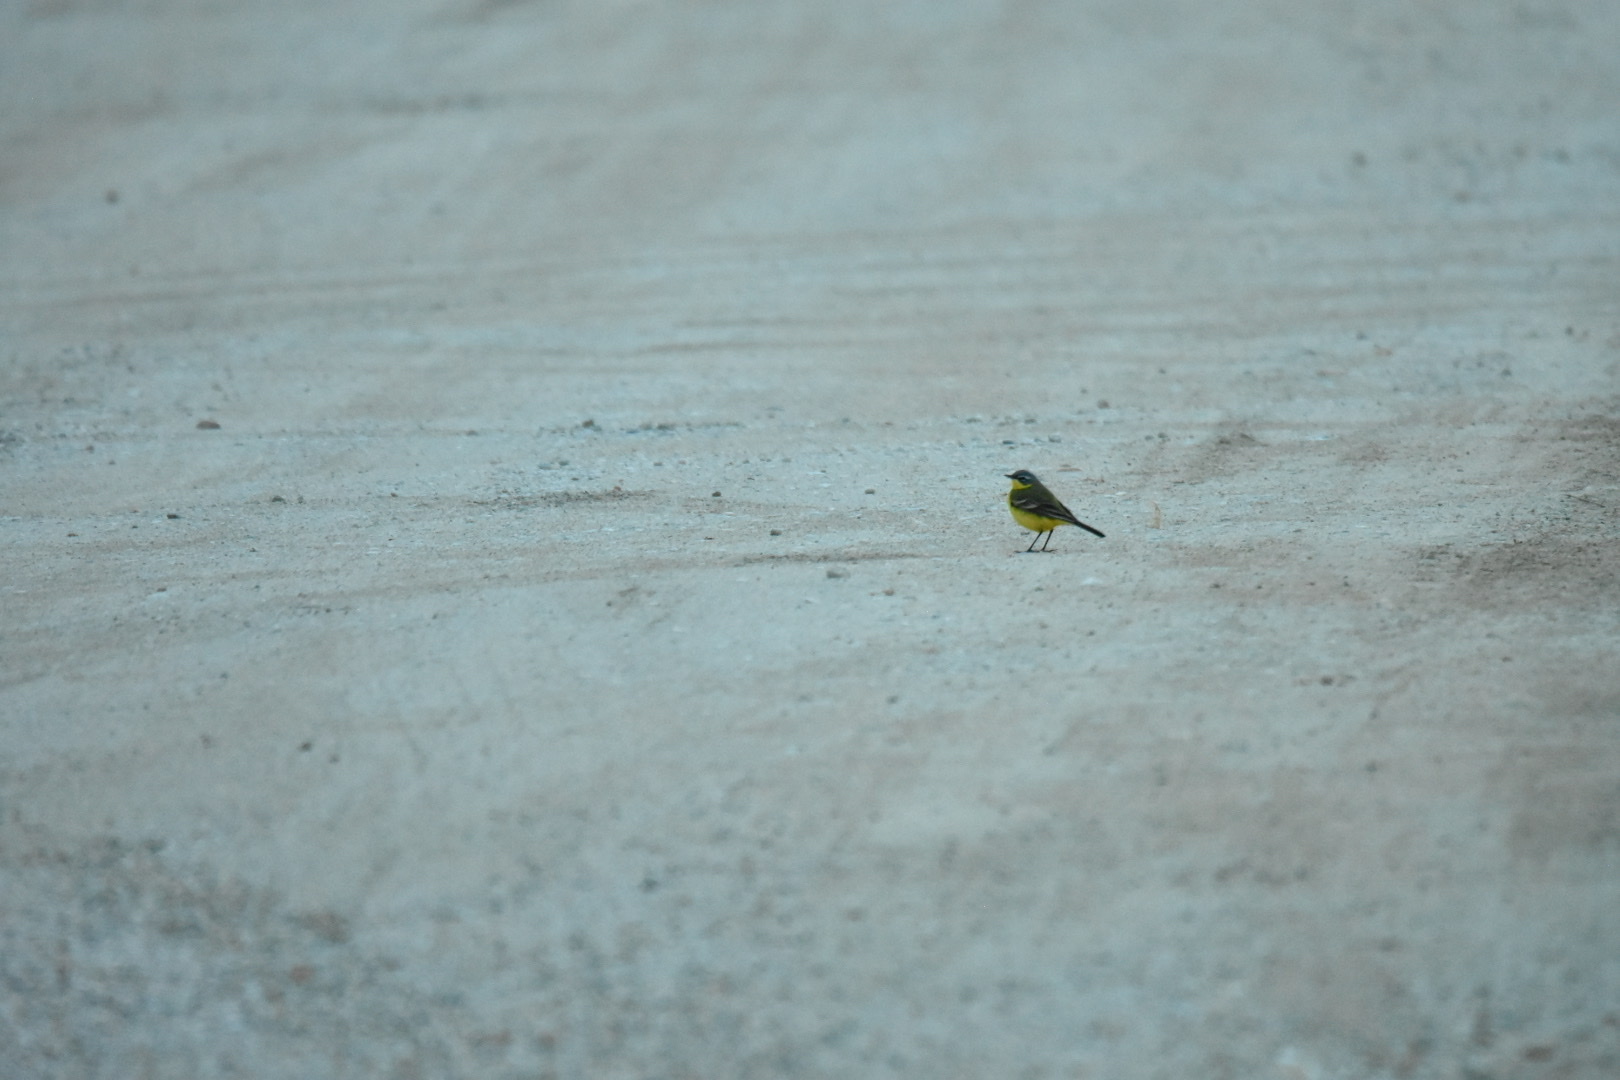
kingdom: Animalia
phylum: Chordata
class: Aves
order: Passeriformes
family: Motacillidae
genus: Motacilla
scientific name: Motacilla flava
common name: Western yellow wagtail
